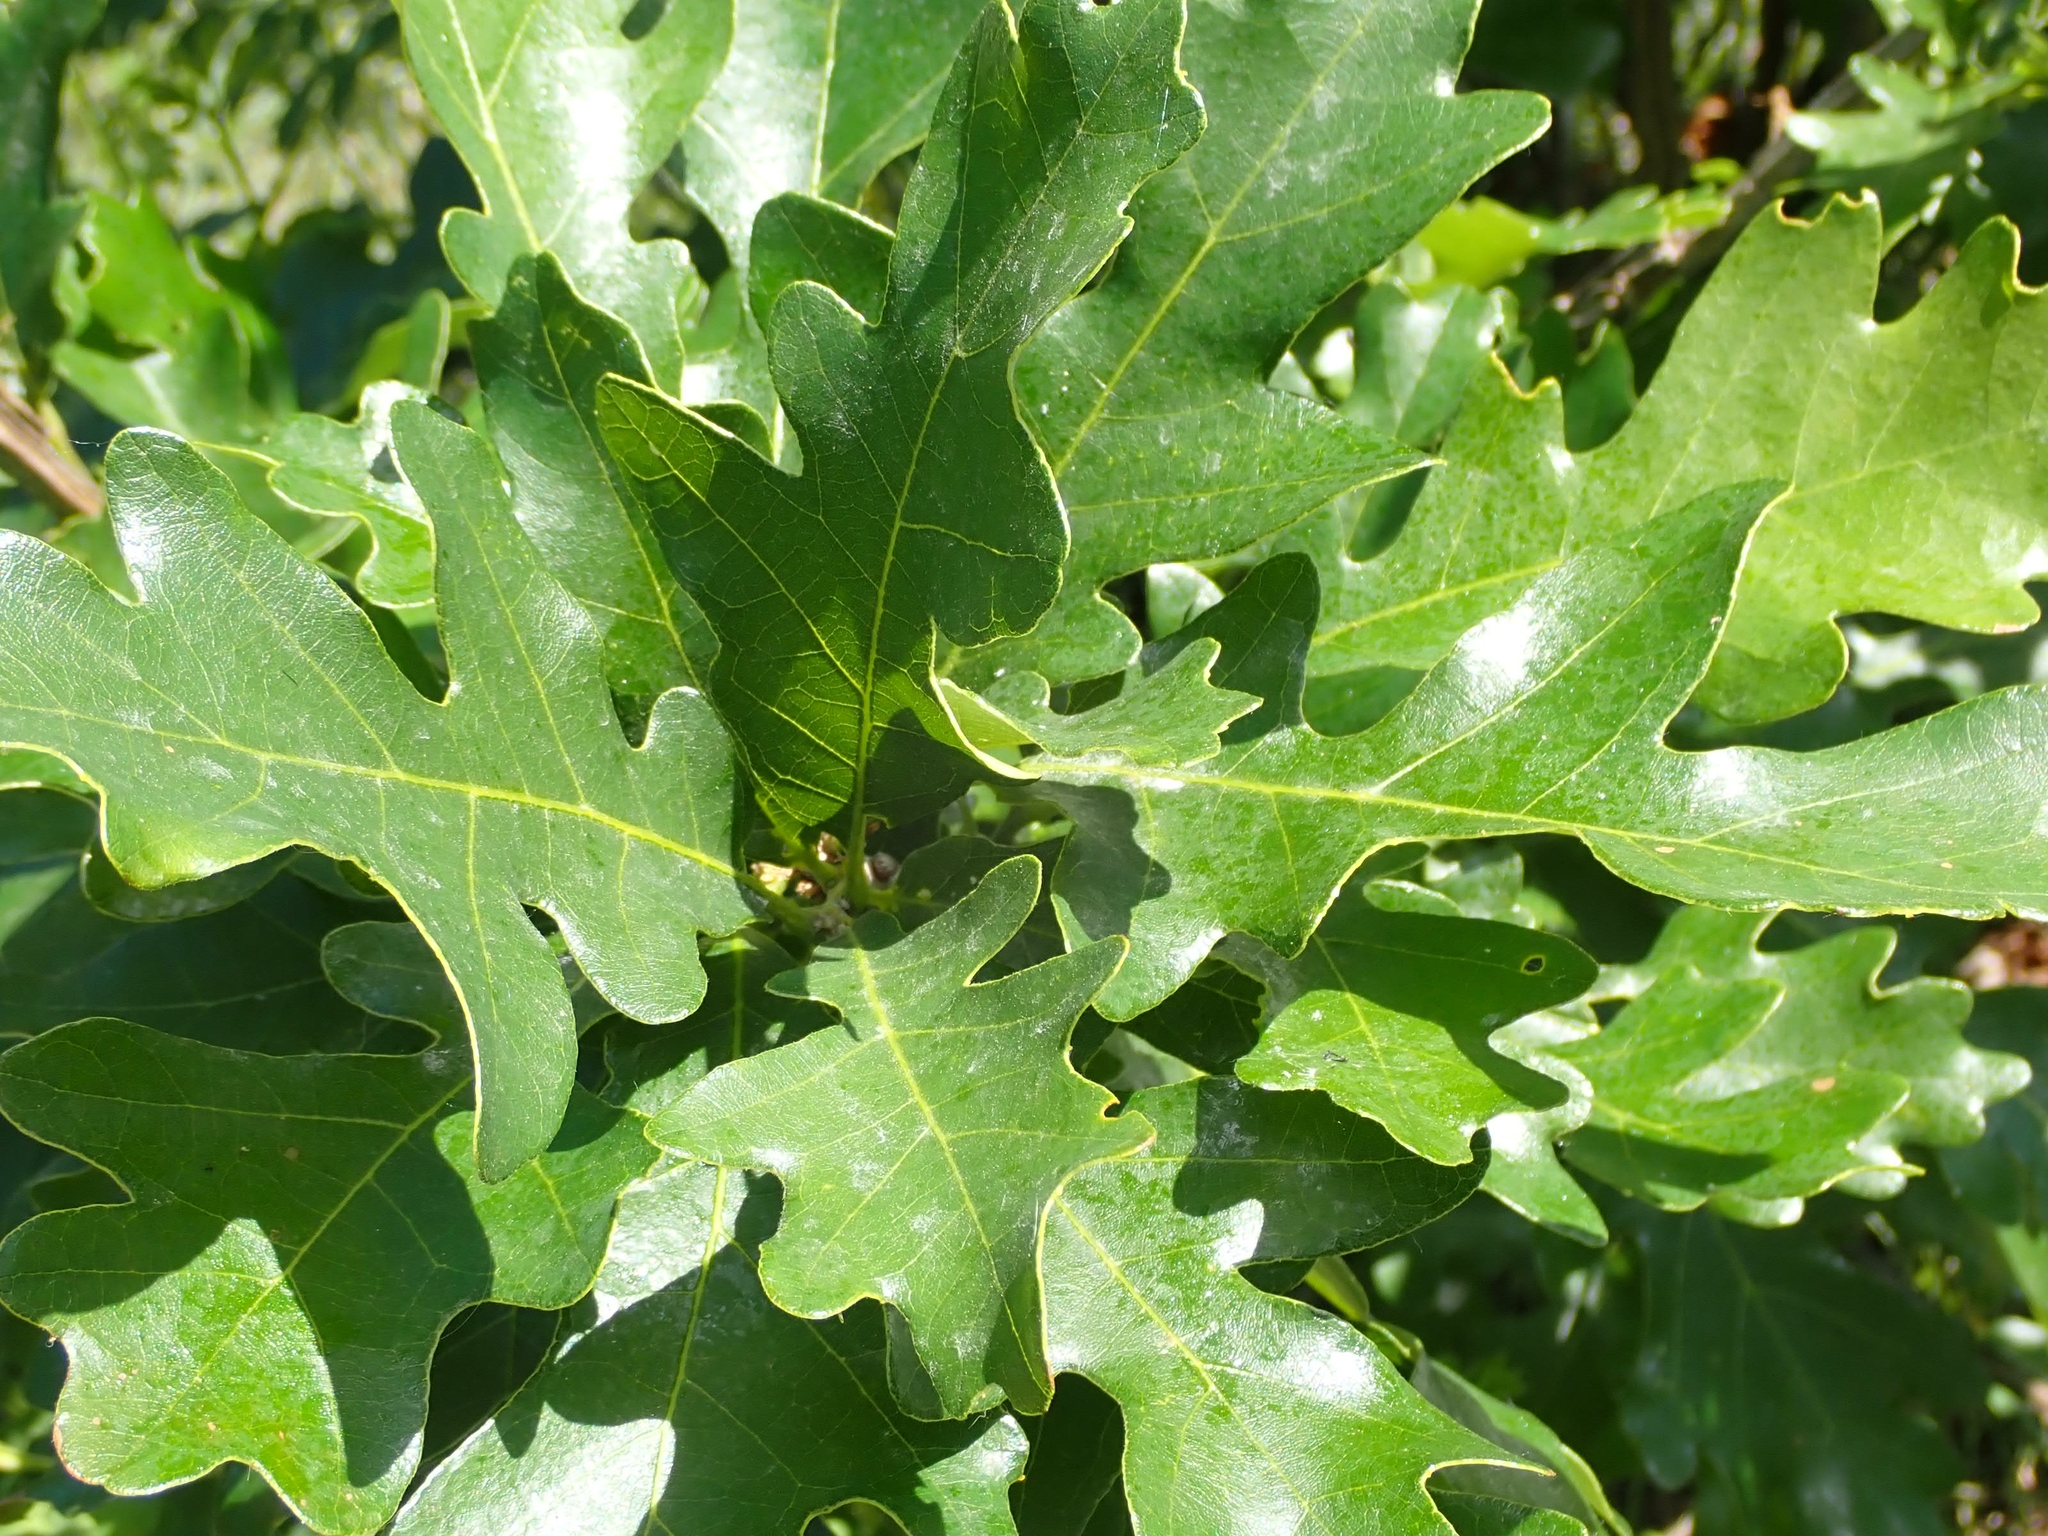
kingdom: Plantae
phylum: Tracheophyta
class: Magnoliopsida
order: Fagales
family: Fagaceae
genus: Quercus
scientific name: Quercus macrocarpa
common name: Bur oak
